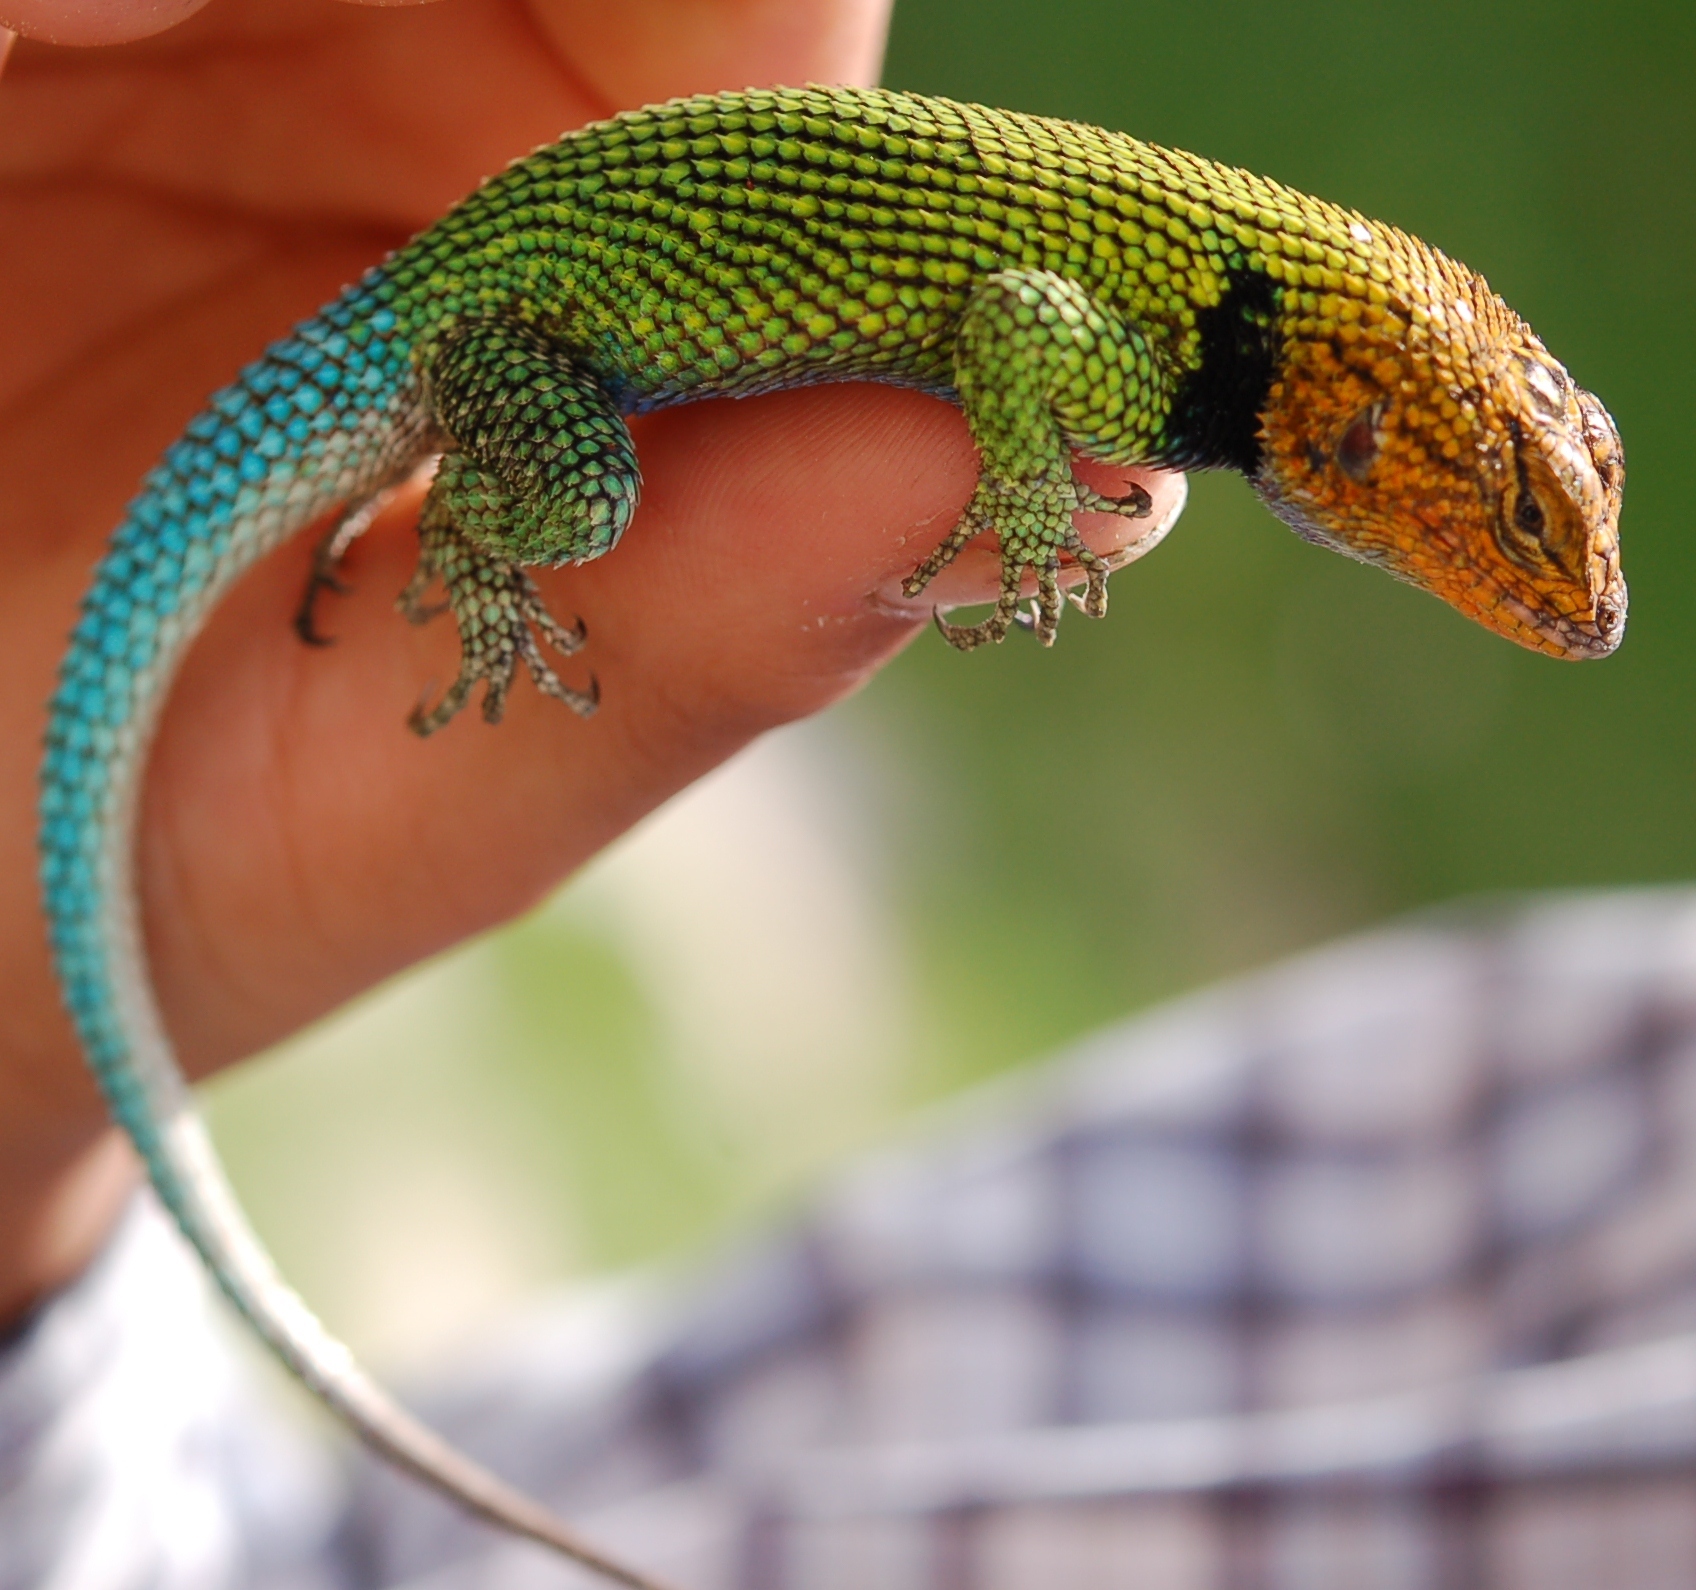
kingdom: Animalia
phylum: Chordata
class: Squamata
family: Phrynosomatidae
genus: Sceloporus
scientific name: Sceloporus taeniocnemis
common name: Guatemalan emerald spiny lizard
